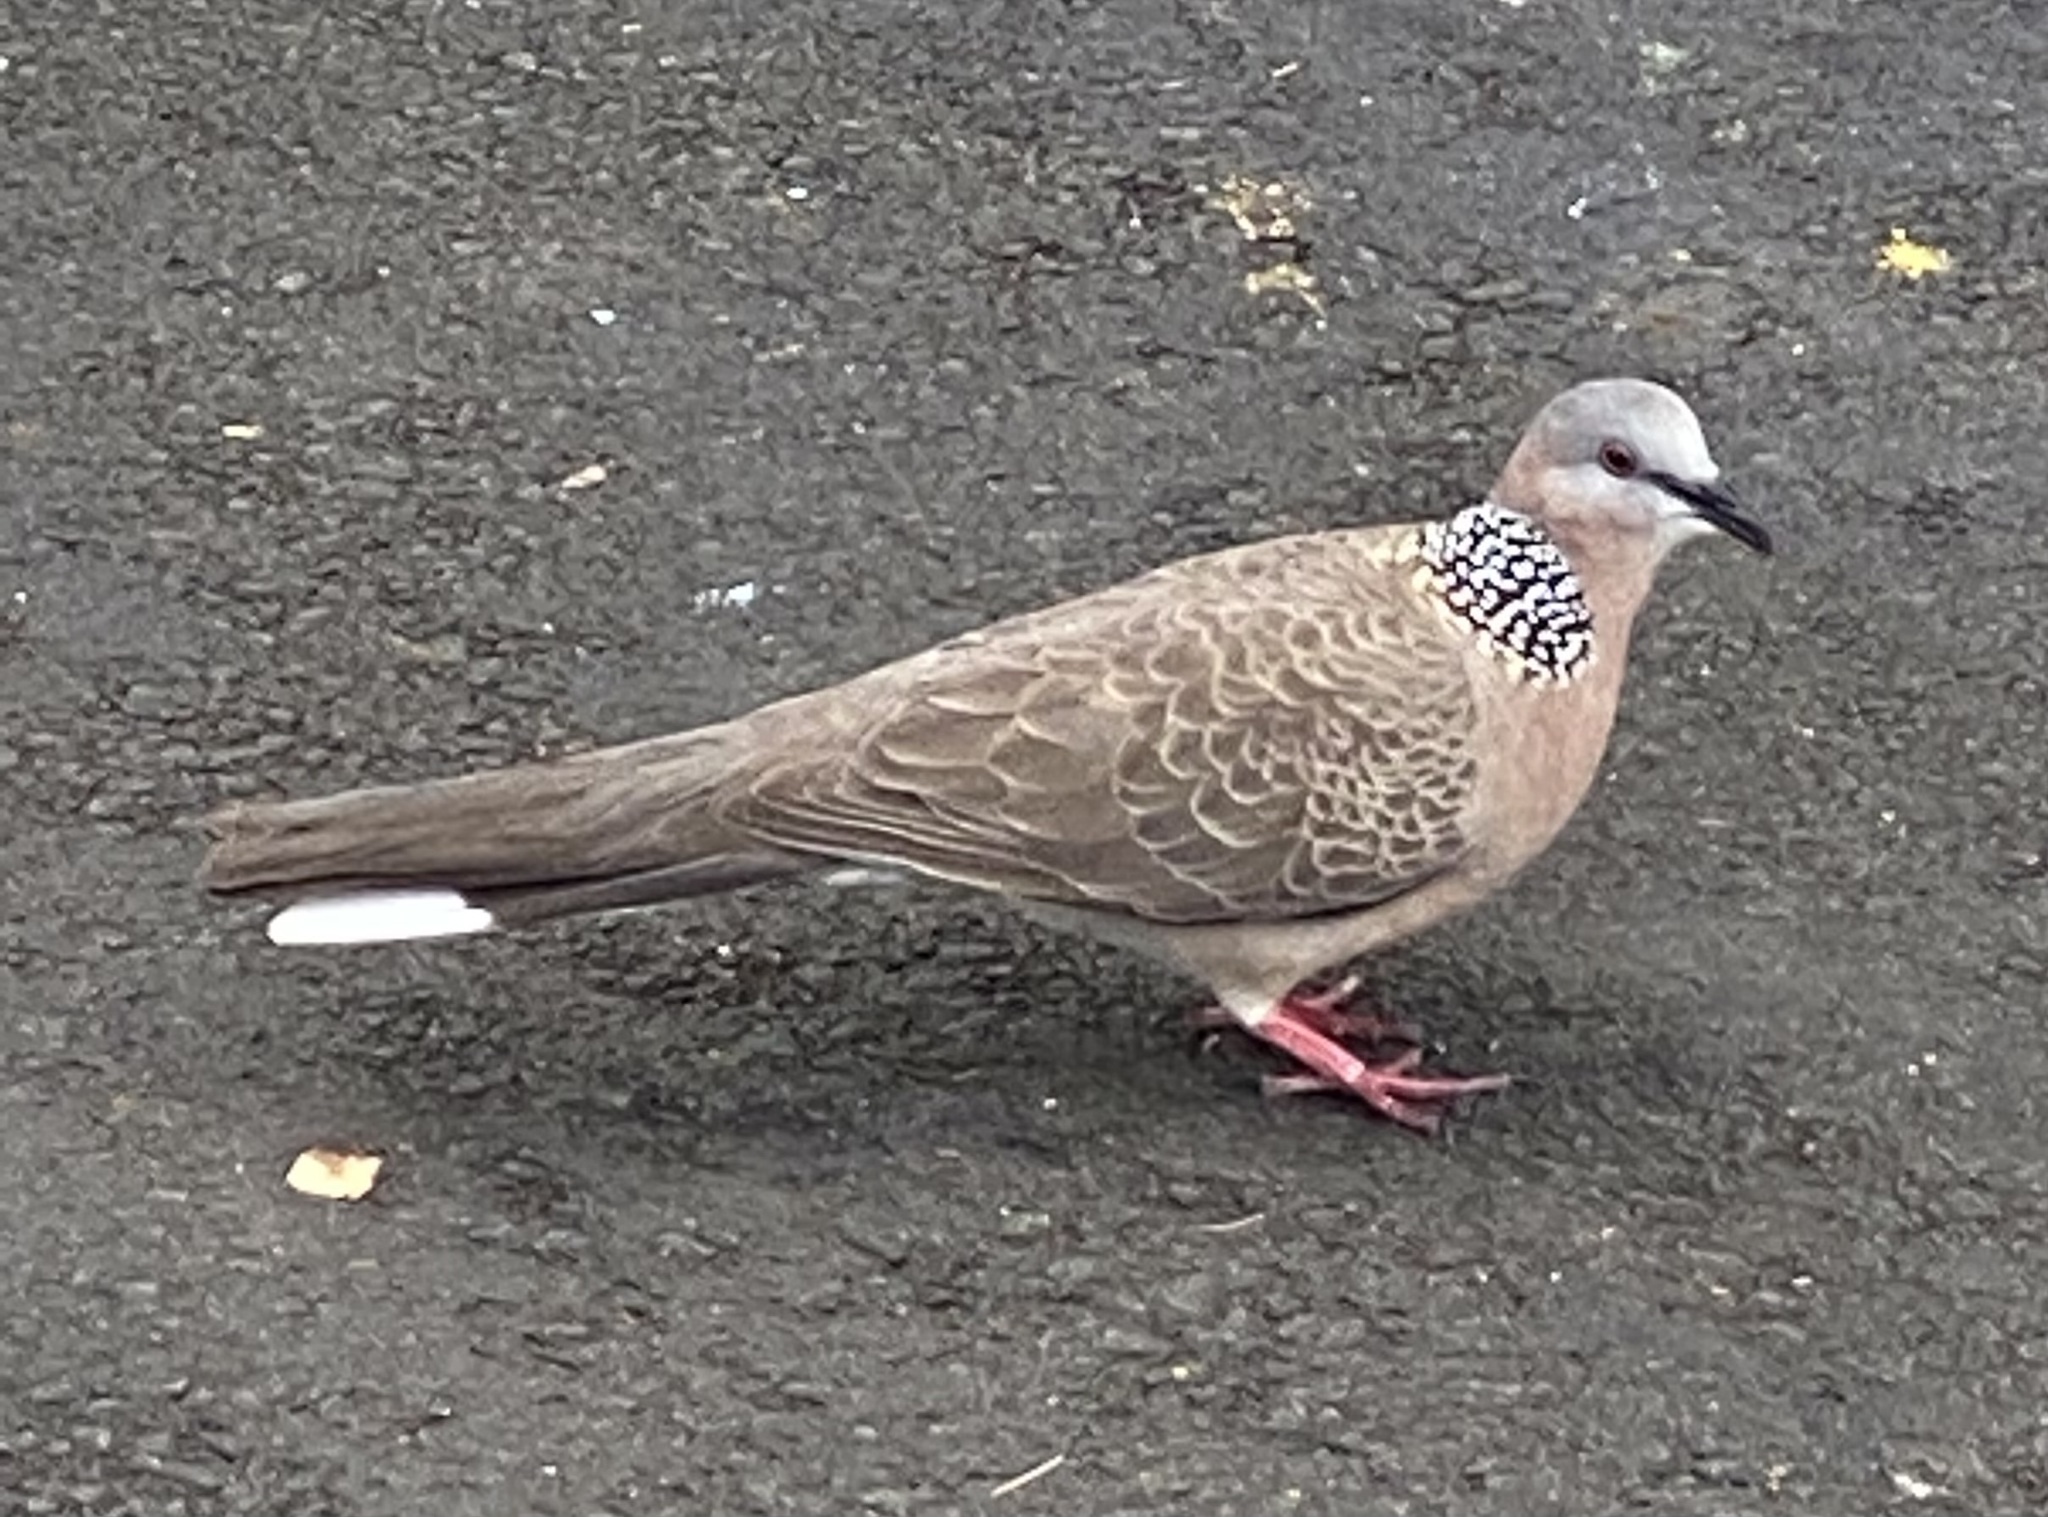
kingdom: Animalia
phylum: Chordata
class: Aves
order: Columbiformes
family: Columbidae
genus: Spilopelia
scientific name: Spilopelia chinensis
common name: Spotted dove
